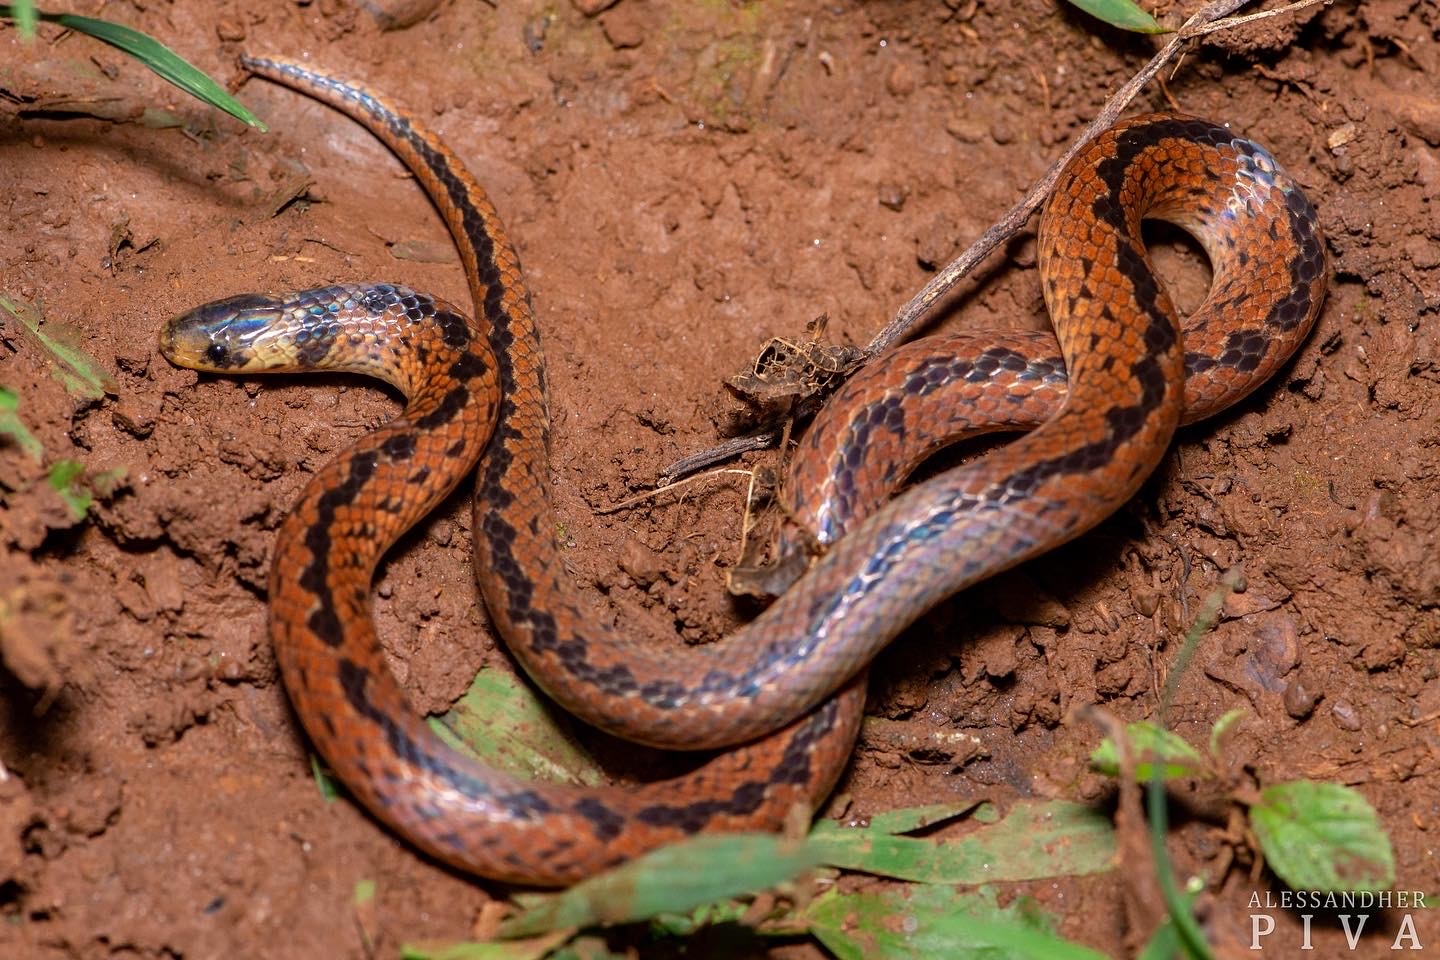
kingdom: Animalia
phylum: Chordata
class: Squamata
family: Colubridae
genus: Atractus
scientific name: Atractus paraguayensis
